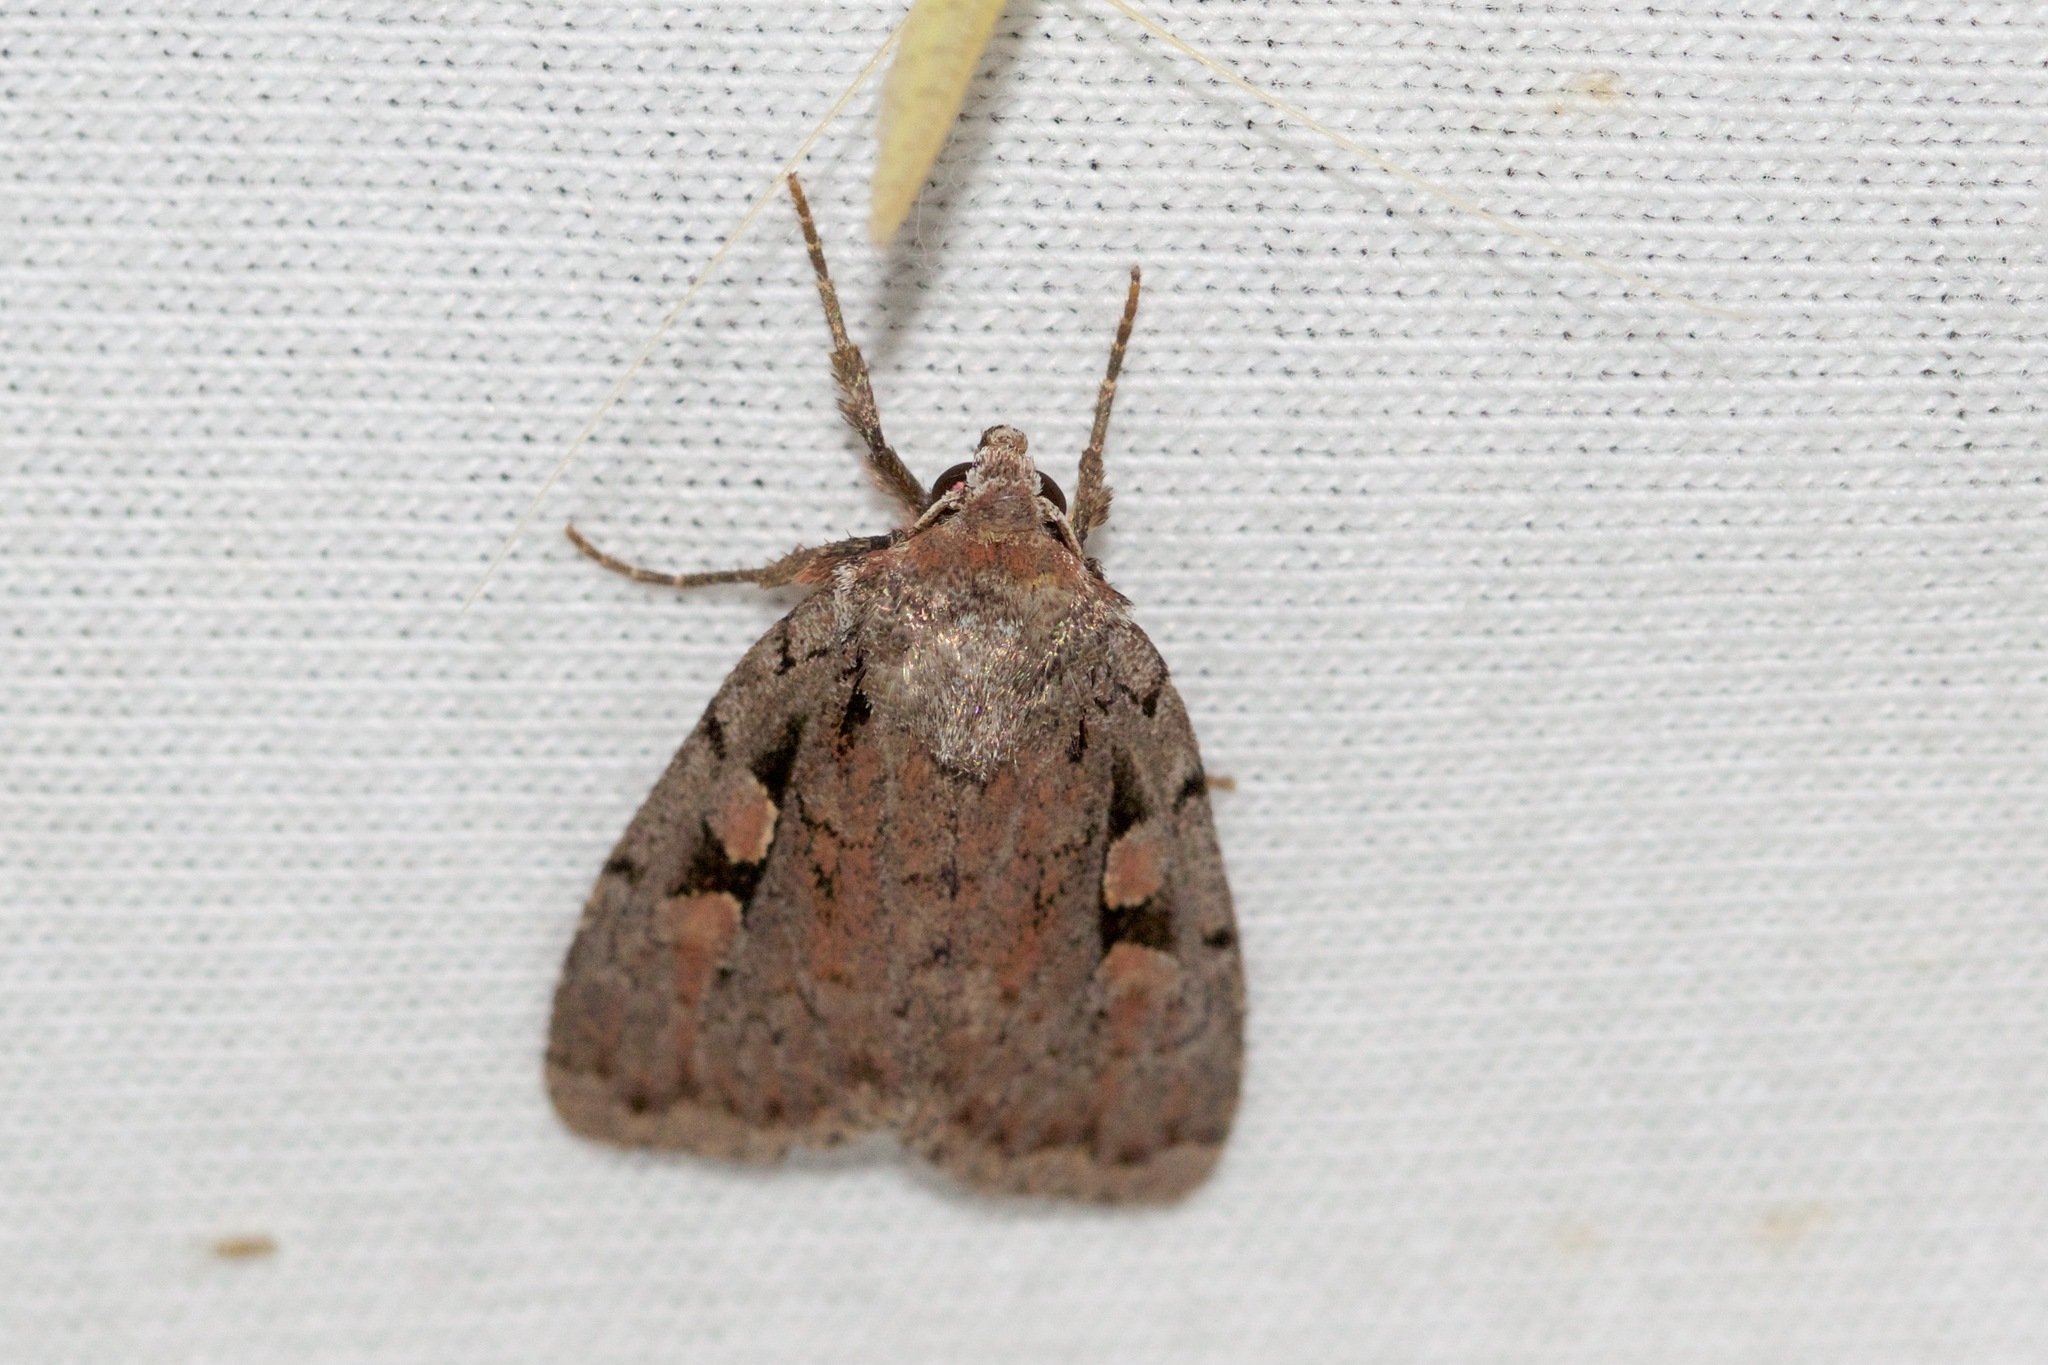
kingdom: Animalia
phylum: Arthropoda
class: Insecta
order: Lepidoptera
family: Noctuidae
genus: Eueretagrotis
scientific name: Eueretagrotis perattentus
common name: Two-spot dart moth
